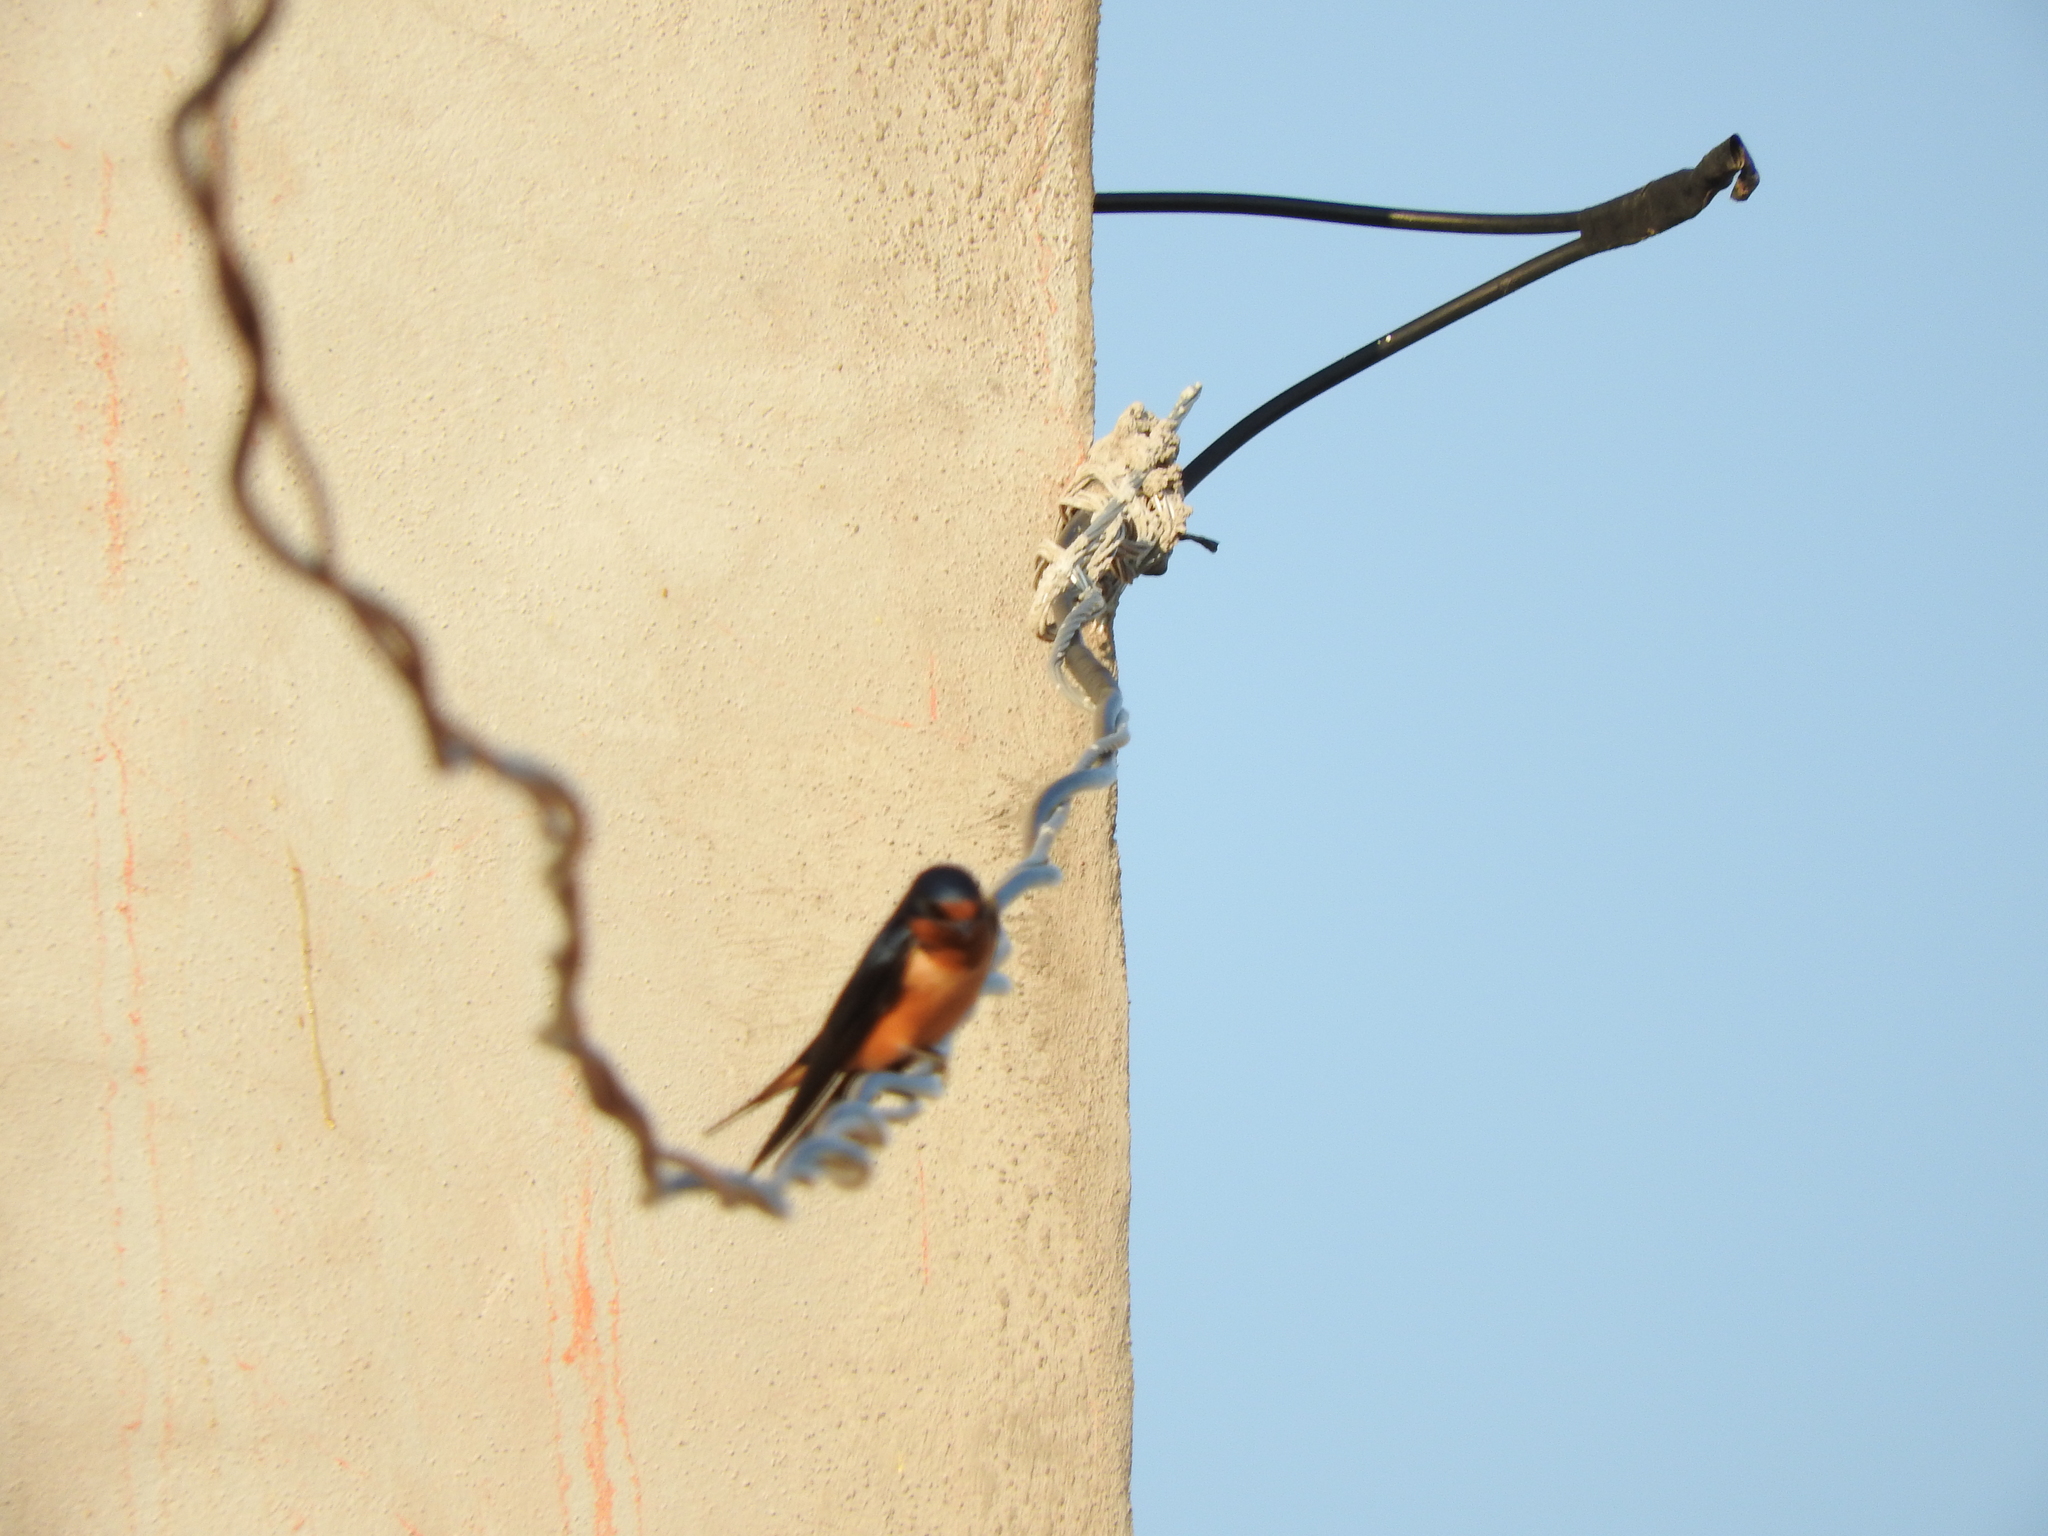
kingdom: Animalia
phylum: Chordata
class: Aves
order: Passeriformes
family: Hirundinidae
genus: Hirundo
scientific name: Hirundo rustica
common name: Barn swallow
